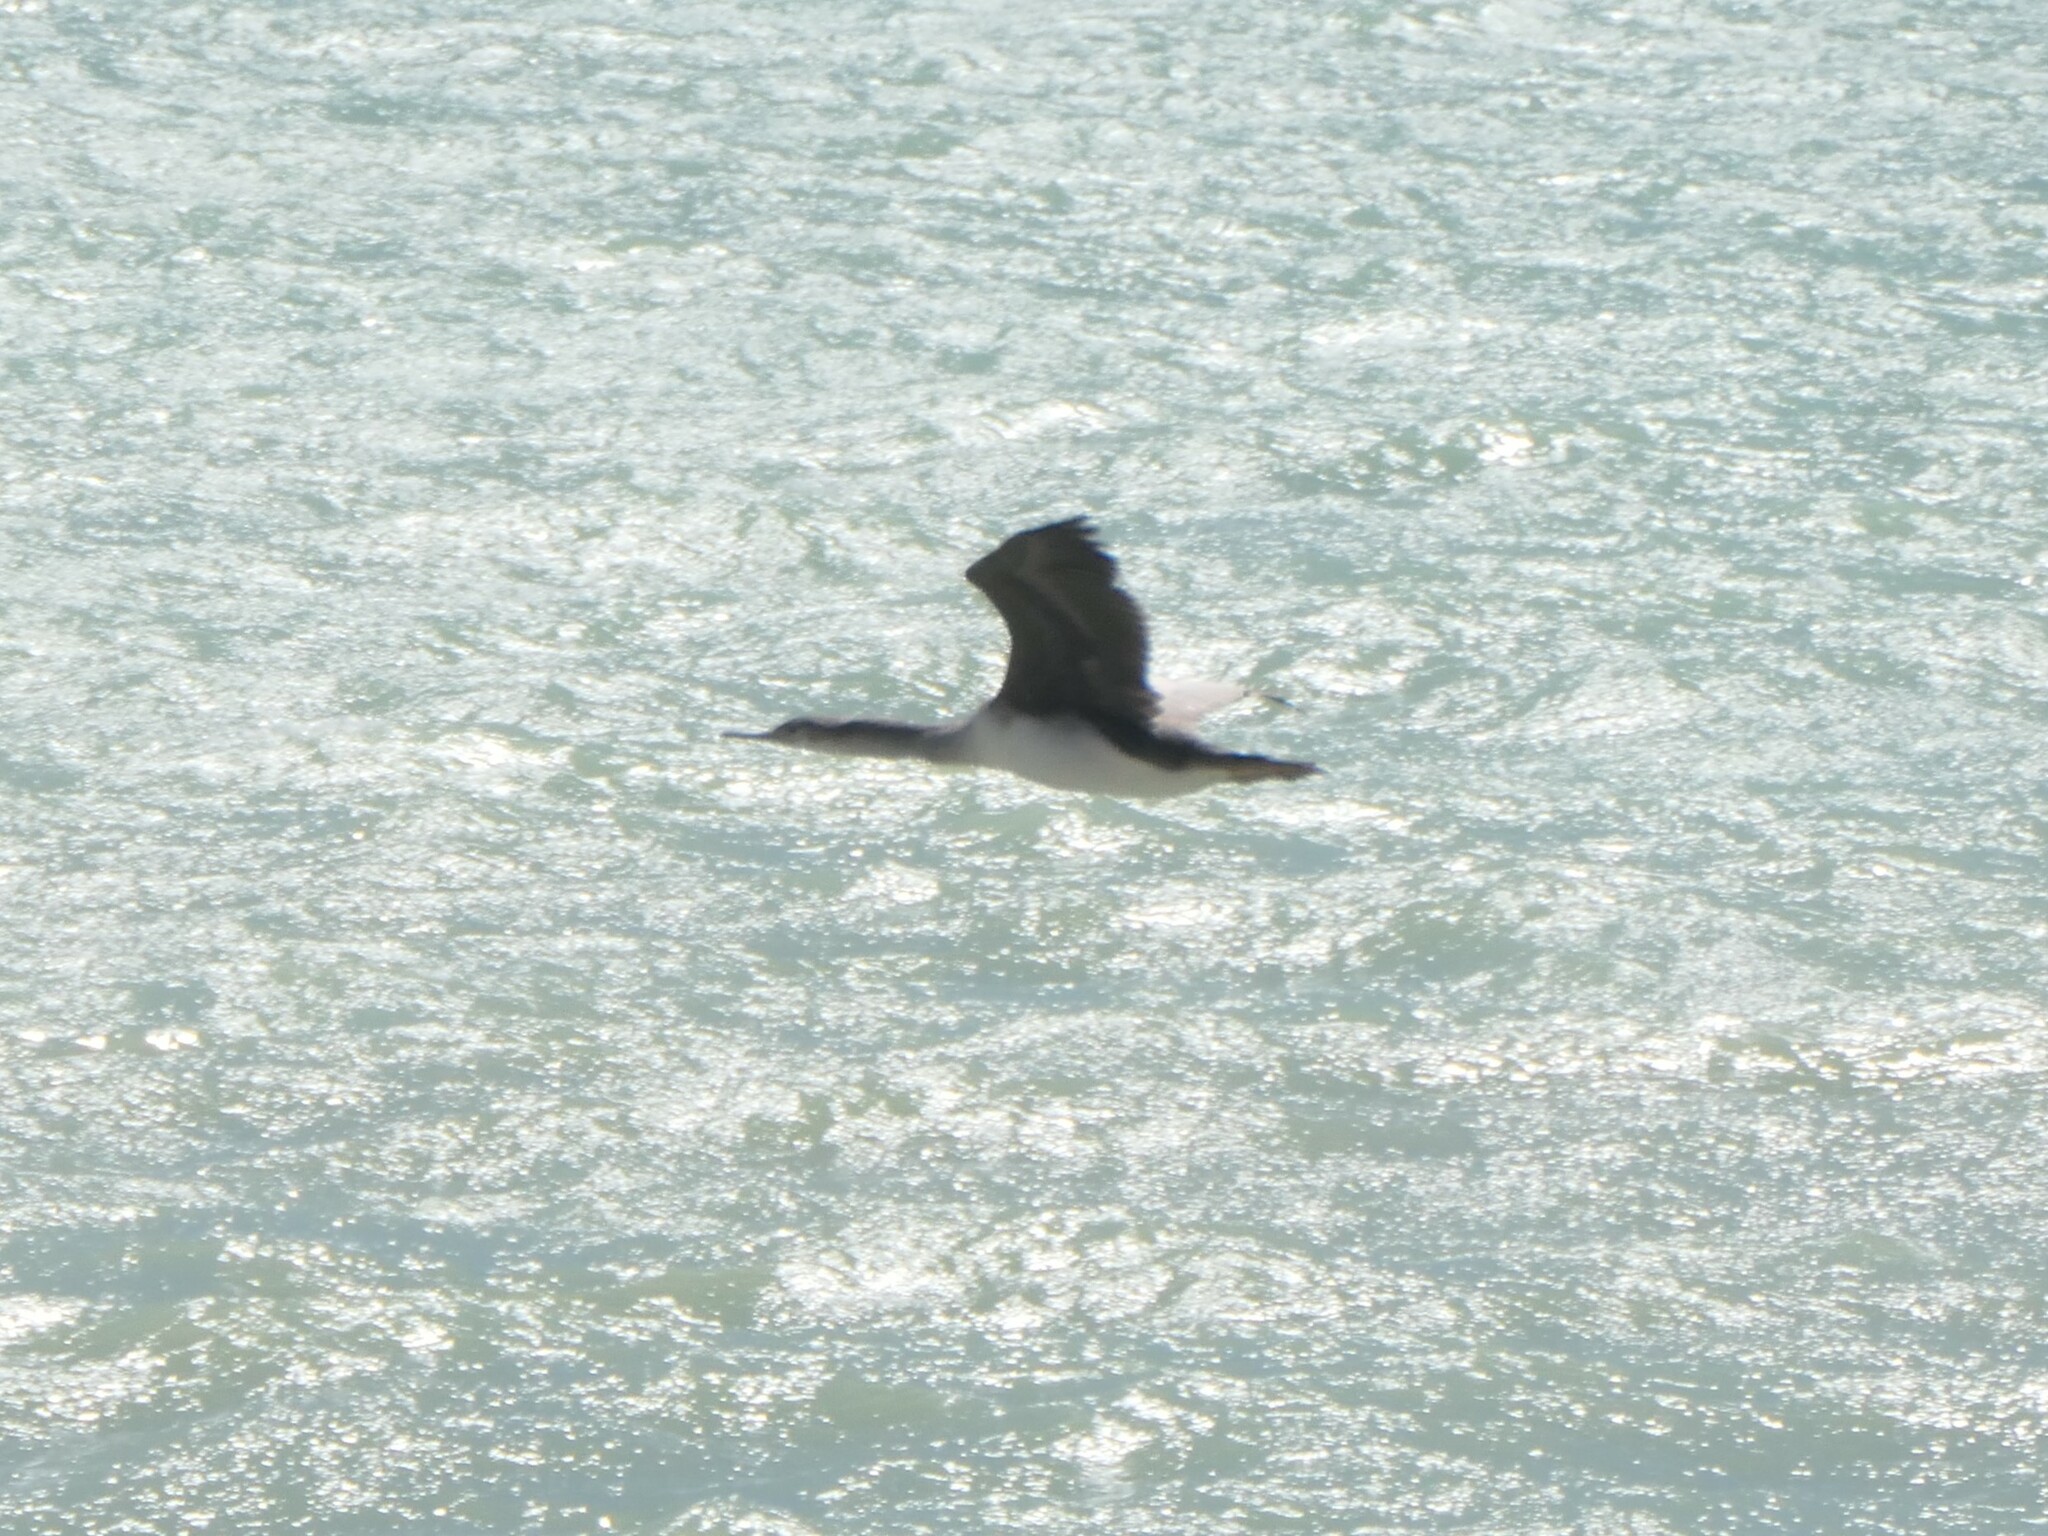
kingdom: Animalia
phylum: Chordata
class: Aves
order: Suliformes
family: Phalacrocoracidae
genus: Phalacrocorax
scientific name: Phalacrocorax punctatus
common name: Spotted shag
